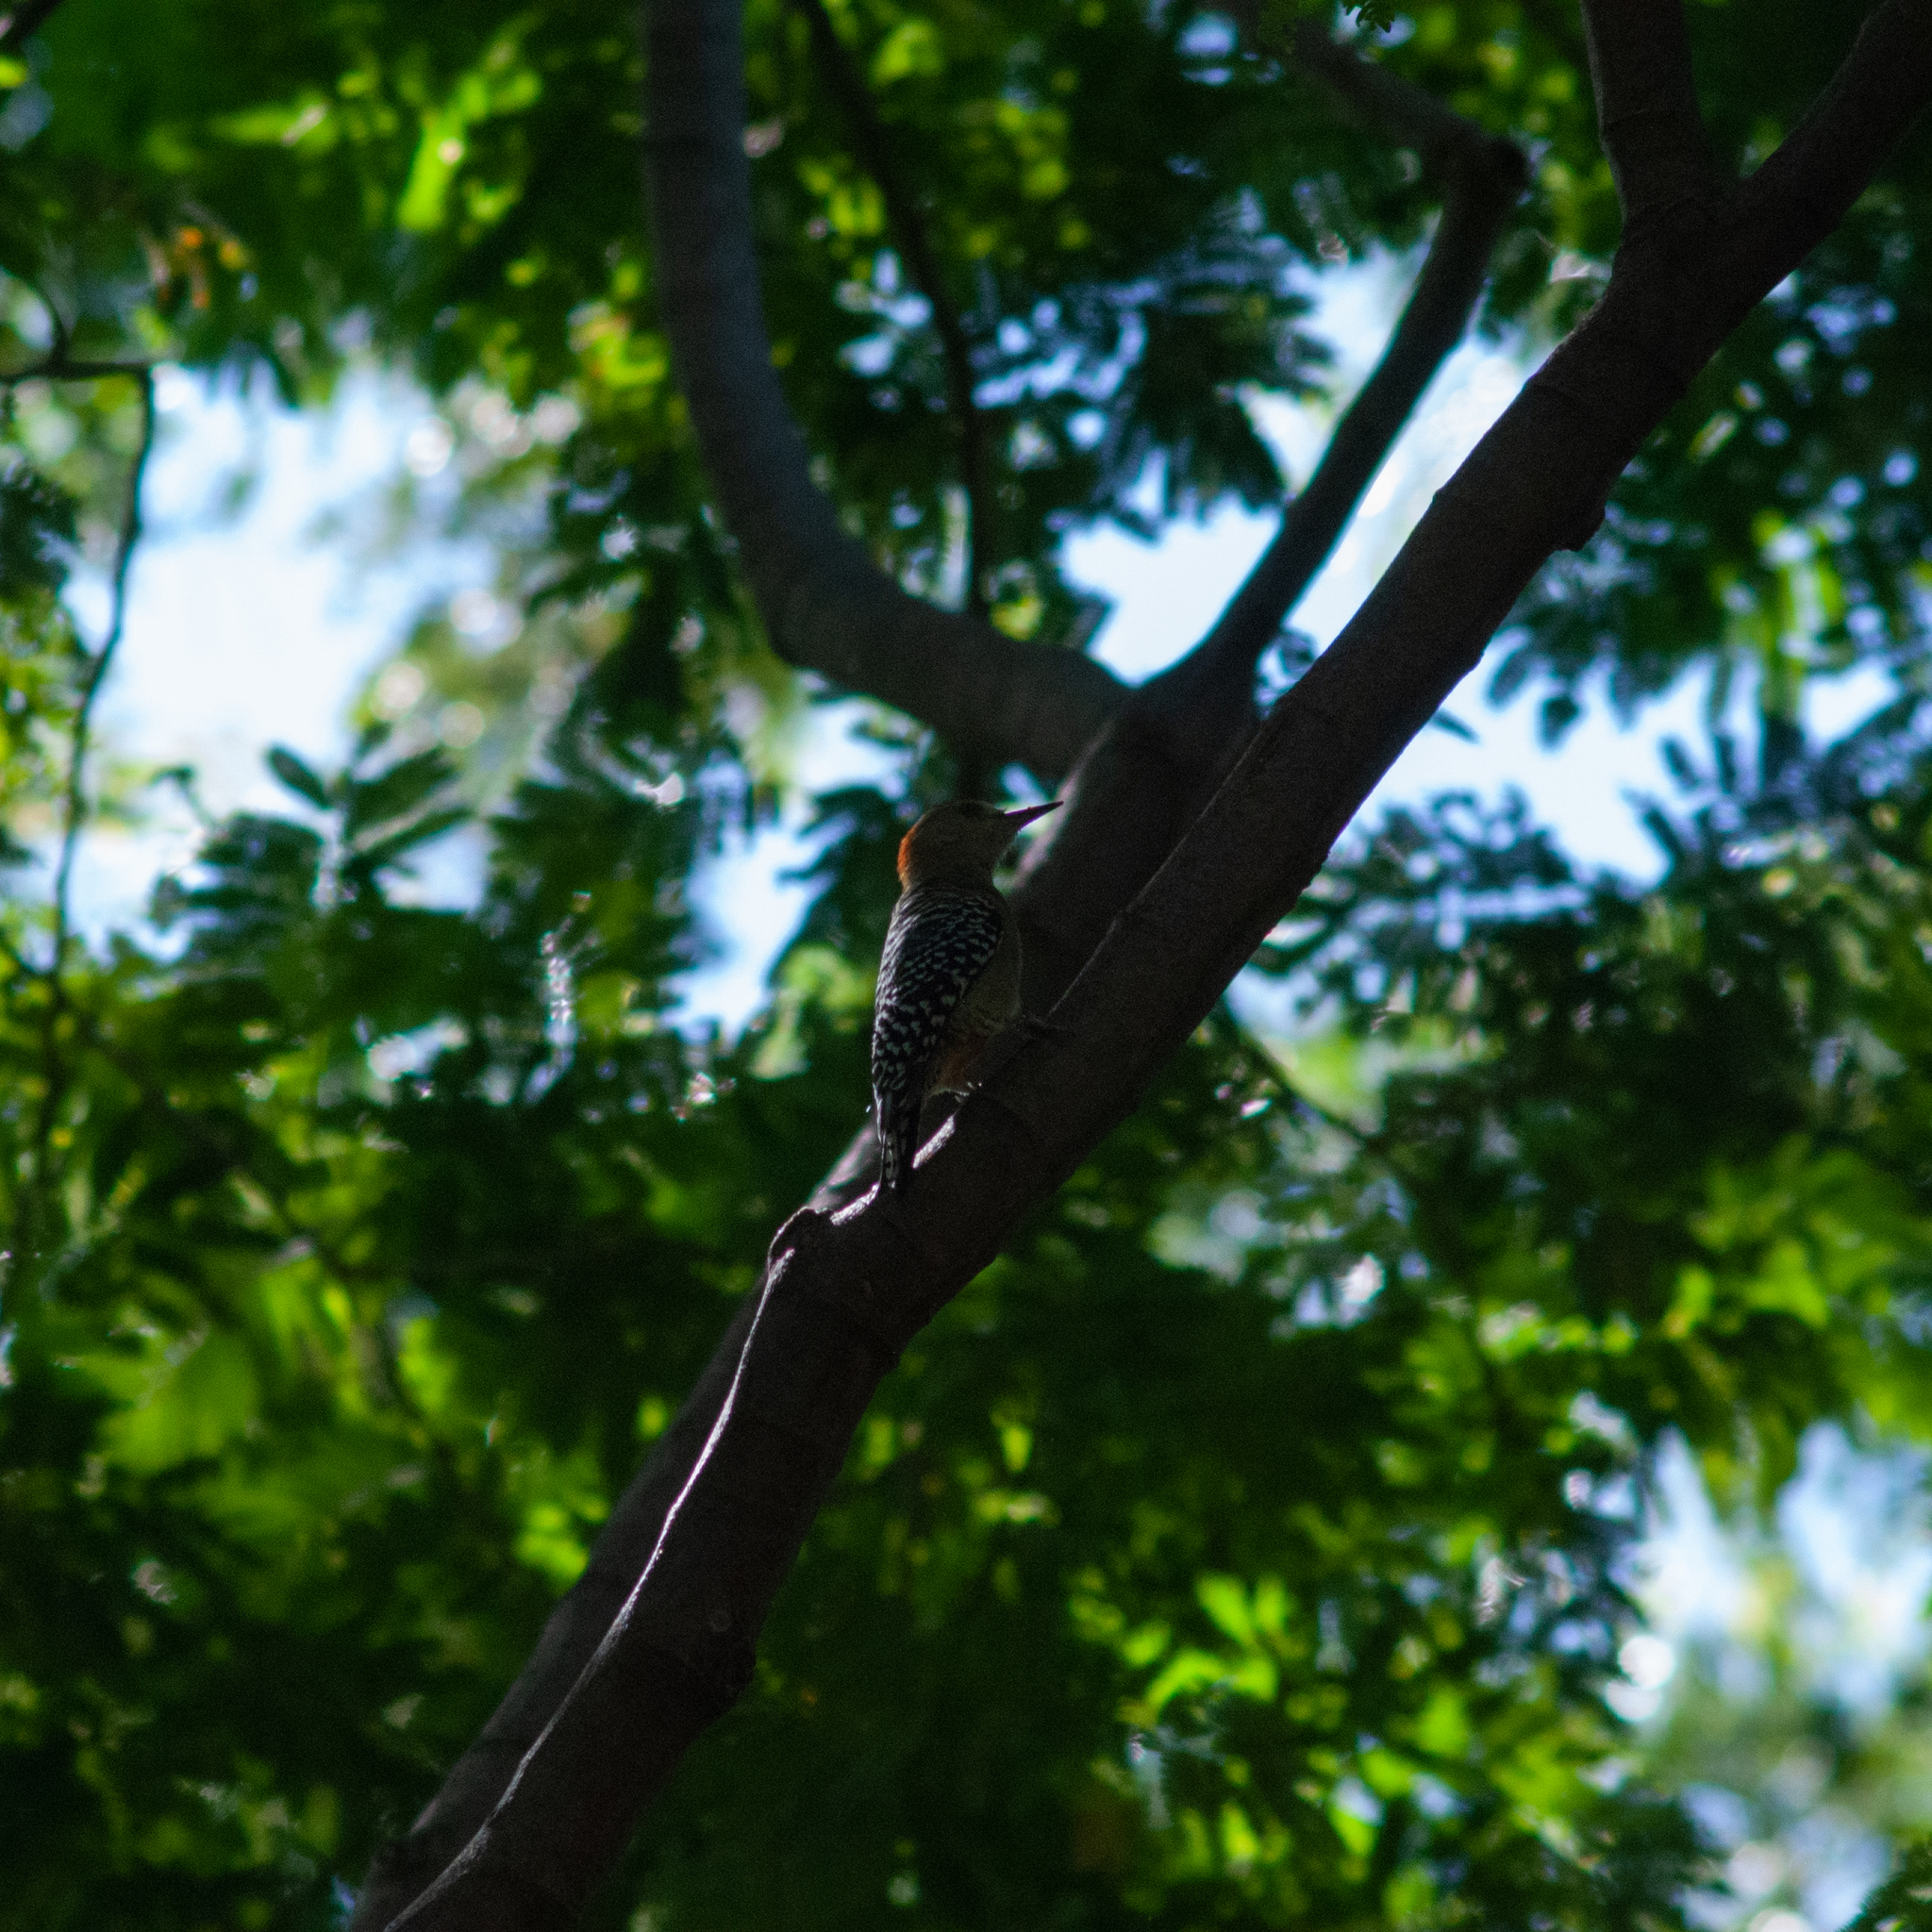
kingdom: Animalia
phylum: Chordata
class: Aves
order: Piciformes
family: Picidae
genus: Melanerpes
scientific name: Melanerpes rubricapillus
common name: Red-crowned woodpecker
